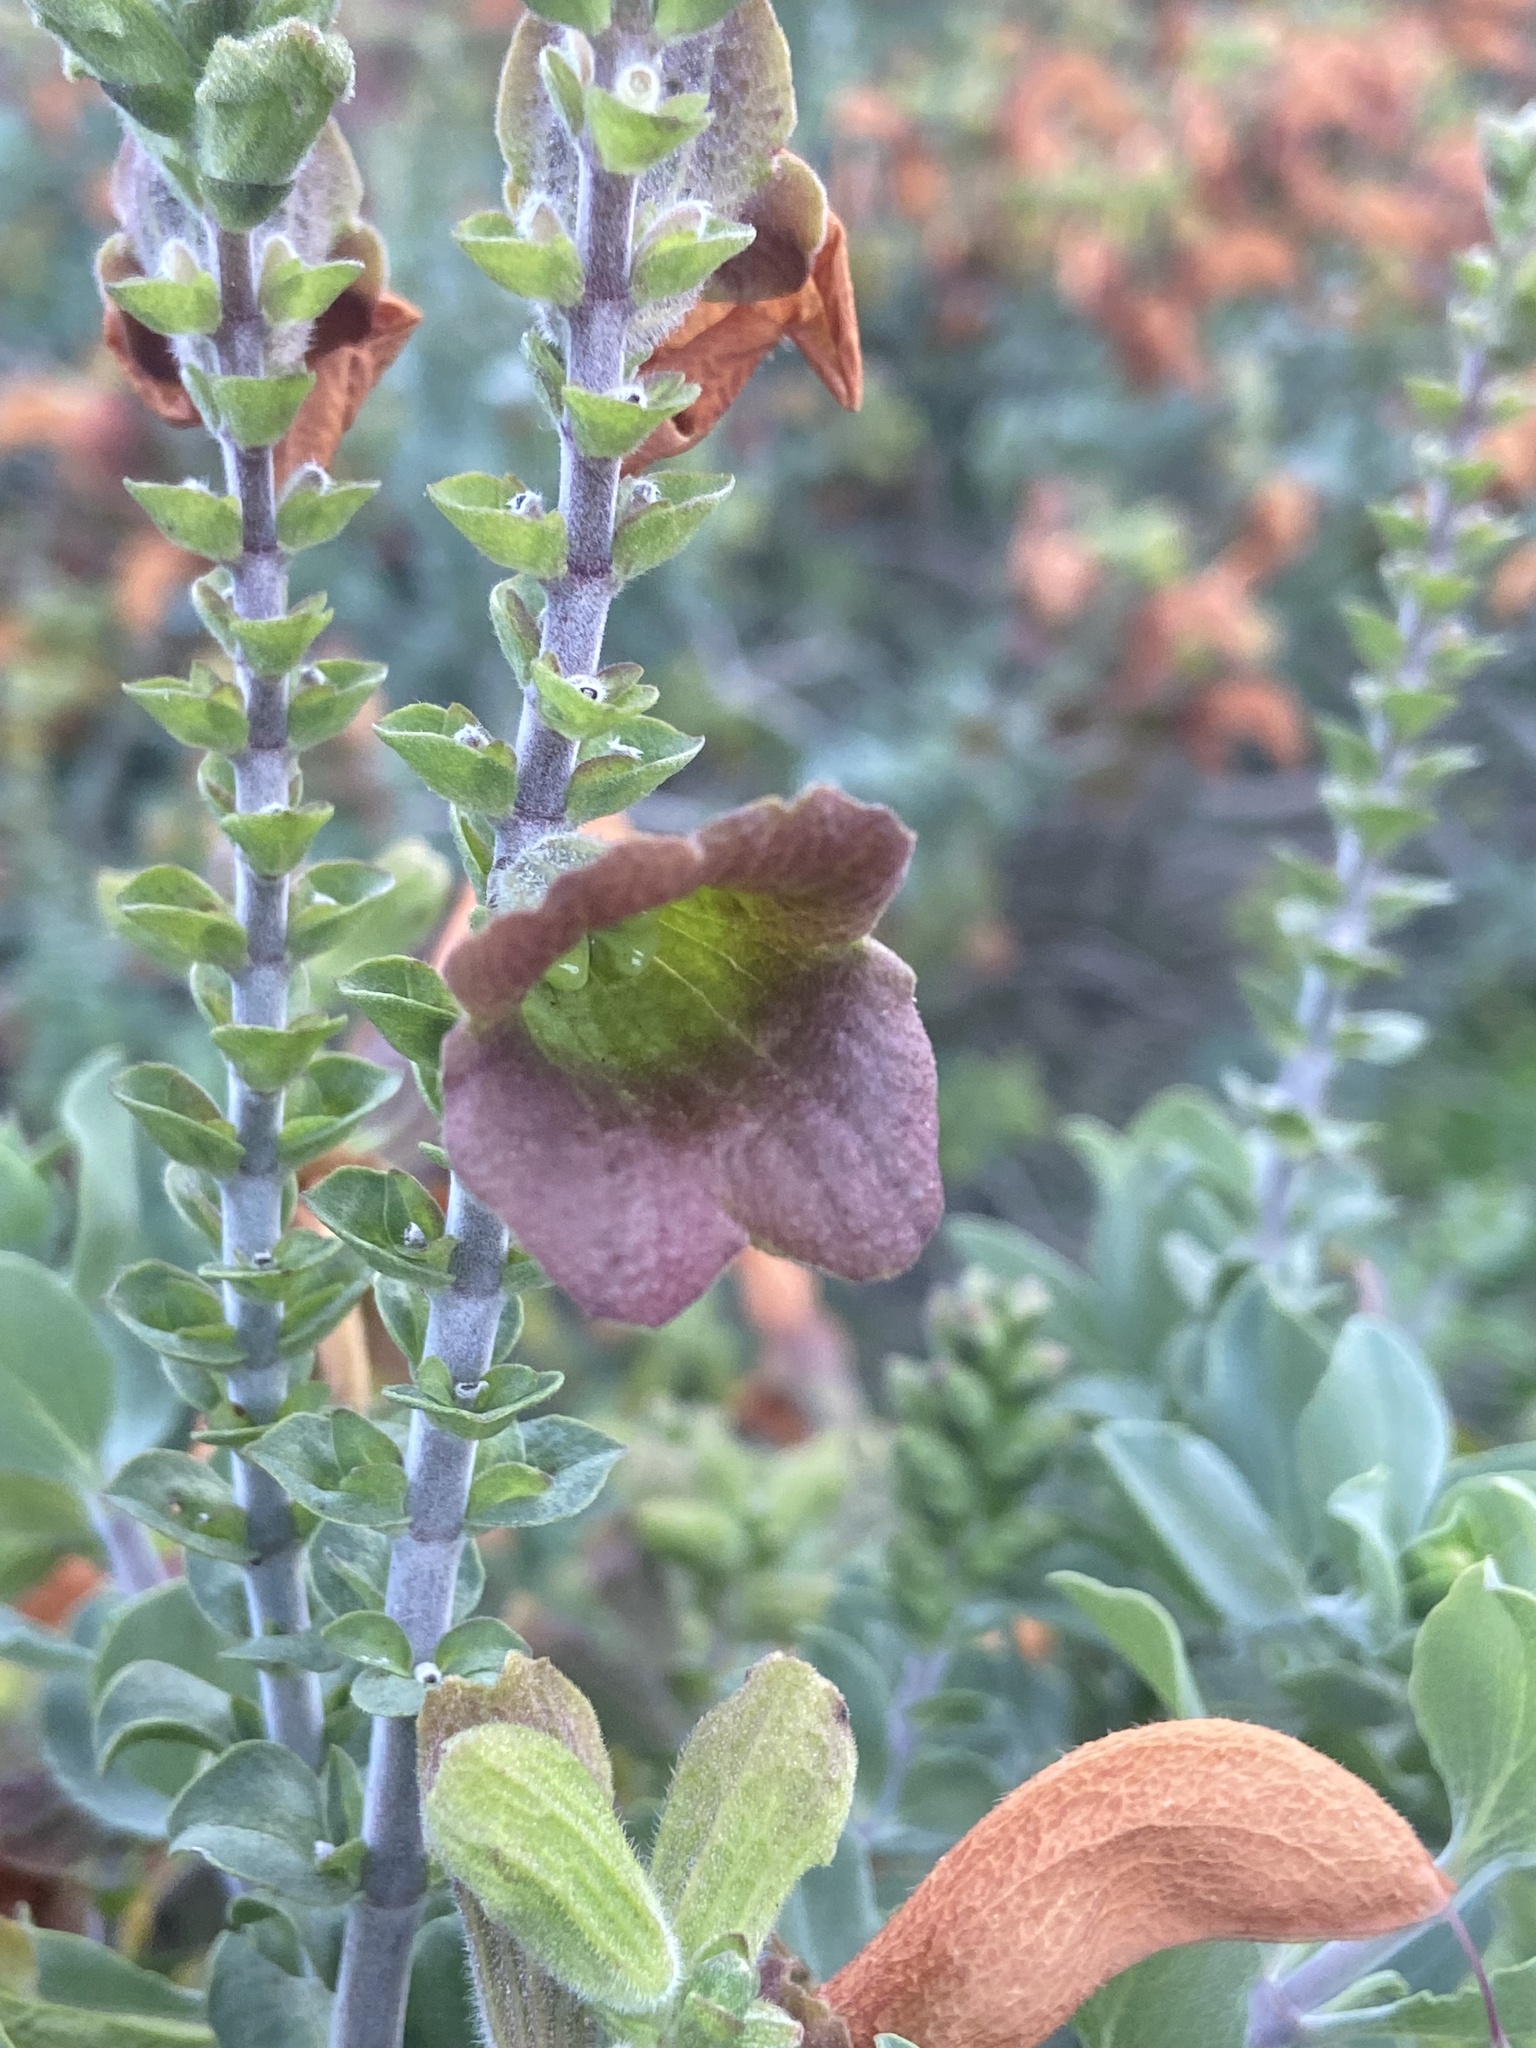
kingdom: Plantae
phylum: Tracheophyta
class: Magnoliopsida
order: Lamiales
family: Lamiaceae
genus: Salvia
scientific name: Salvia aurea
